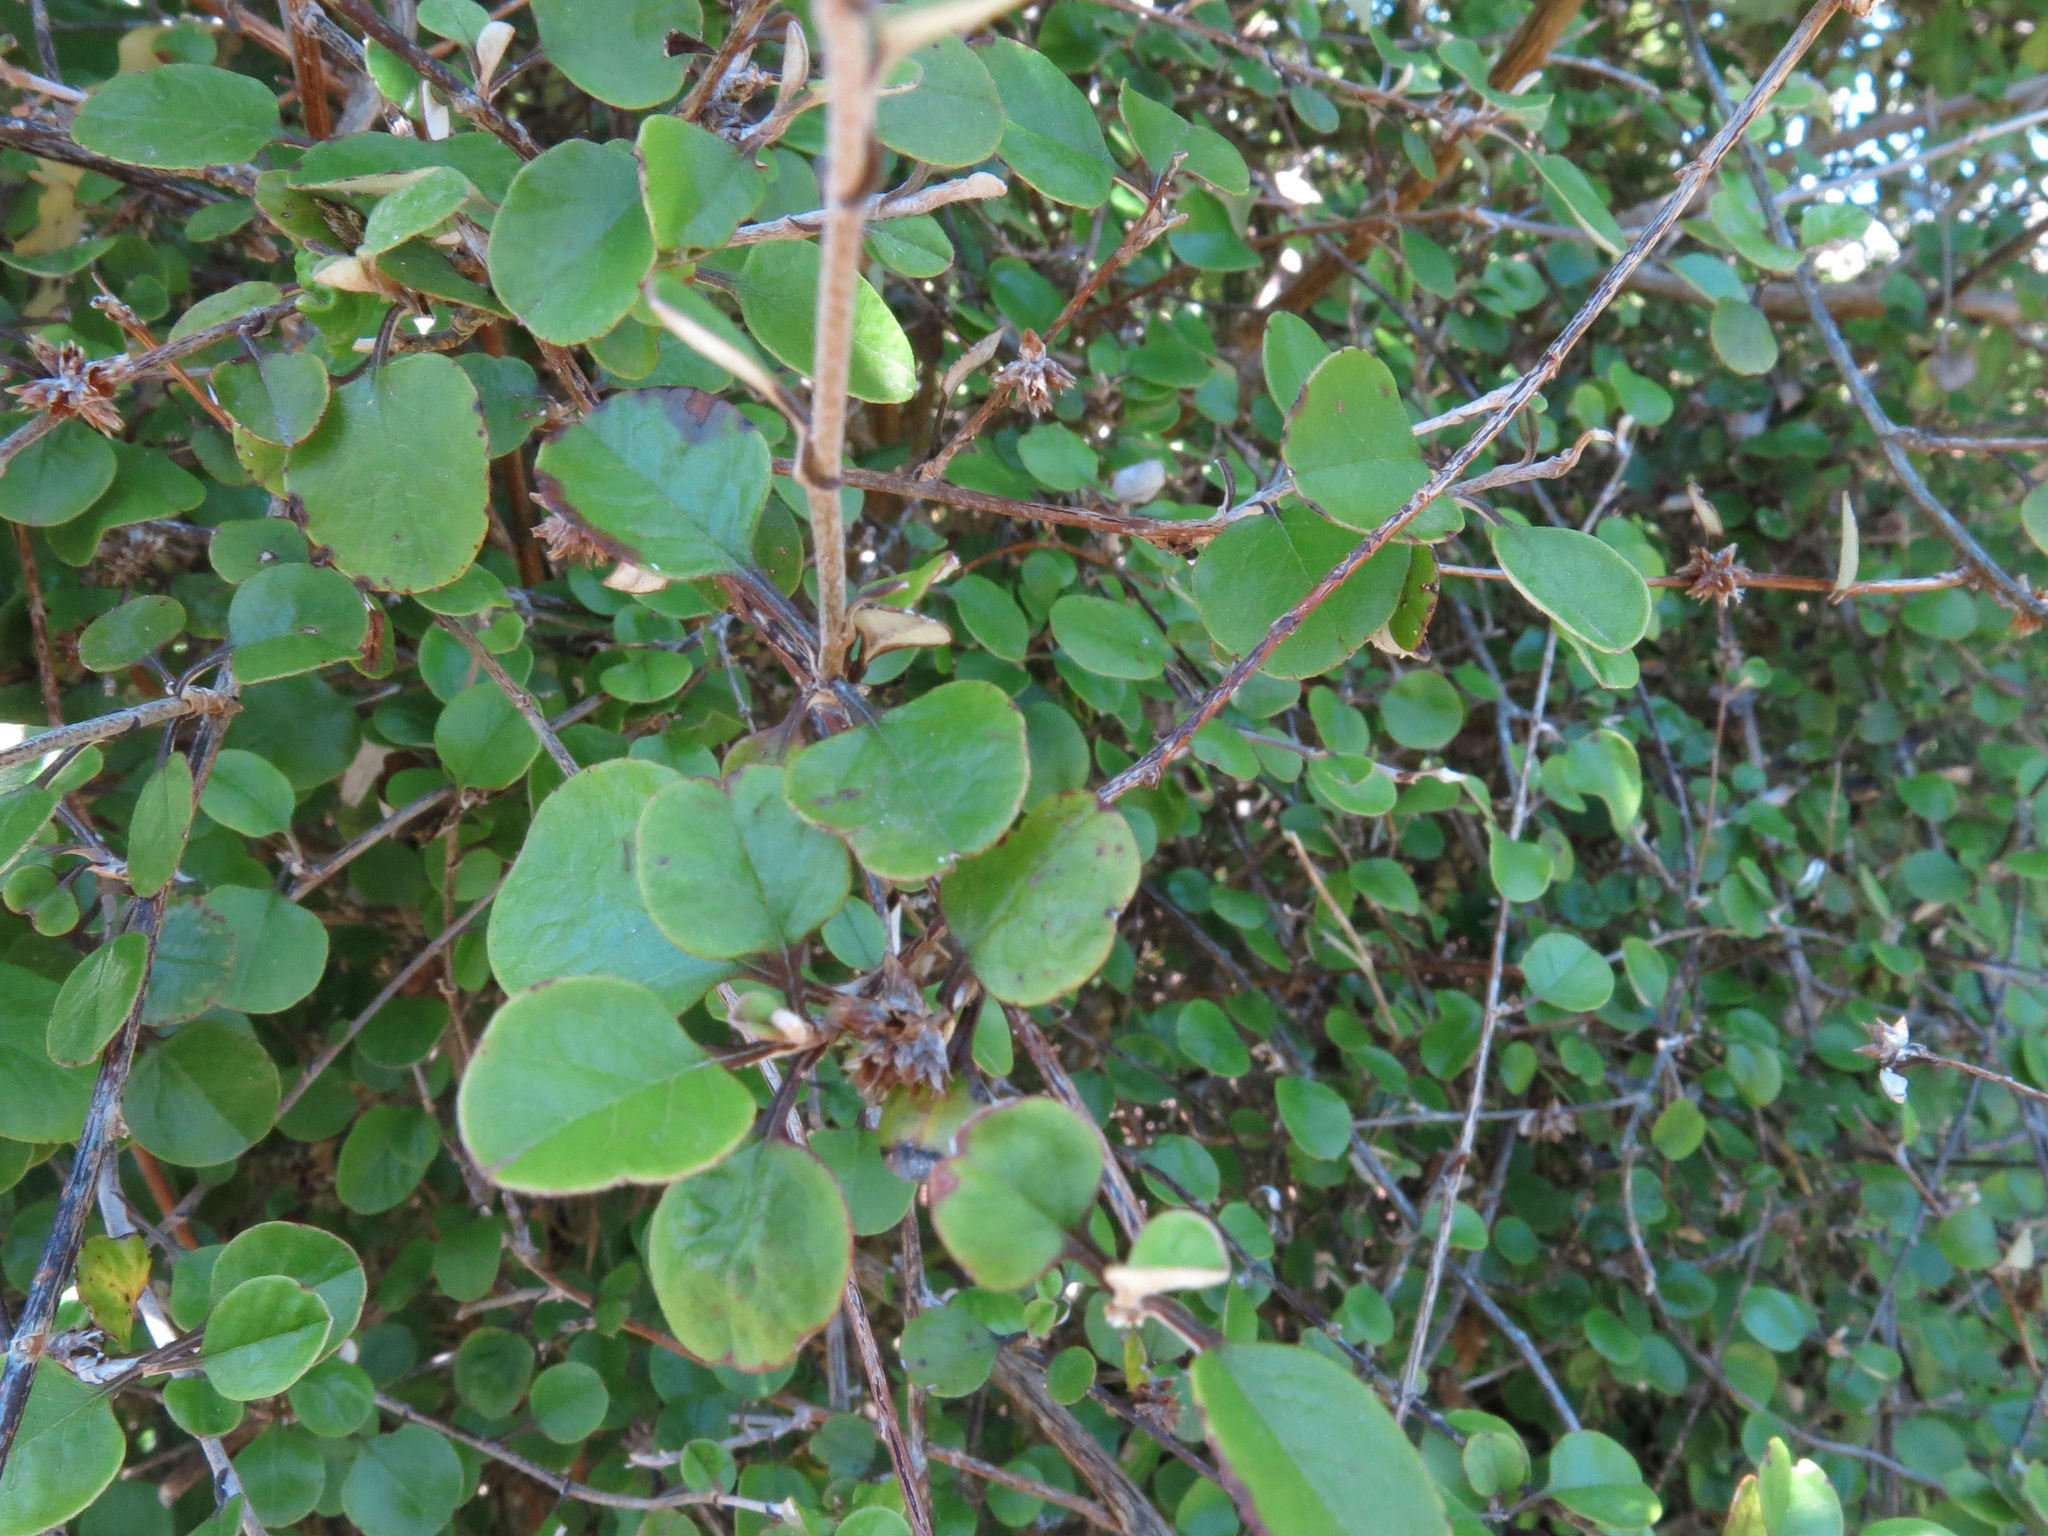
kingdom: Plantae
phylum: Tracheophyta
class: Magnoliopsida
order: Asterales
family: Asteraceae
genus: Ozothamnus
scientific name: Ozothamnus glomeratus
